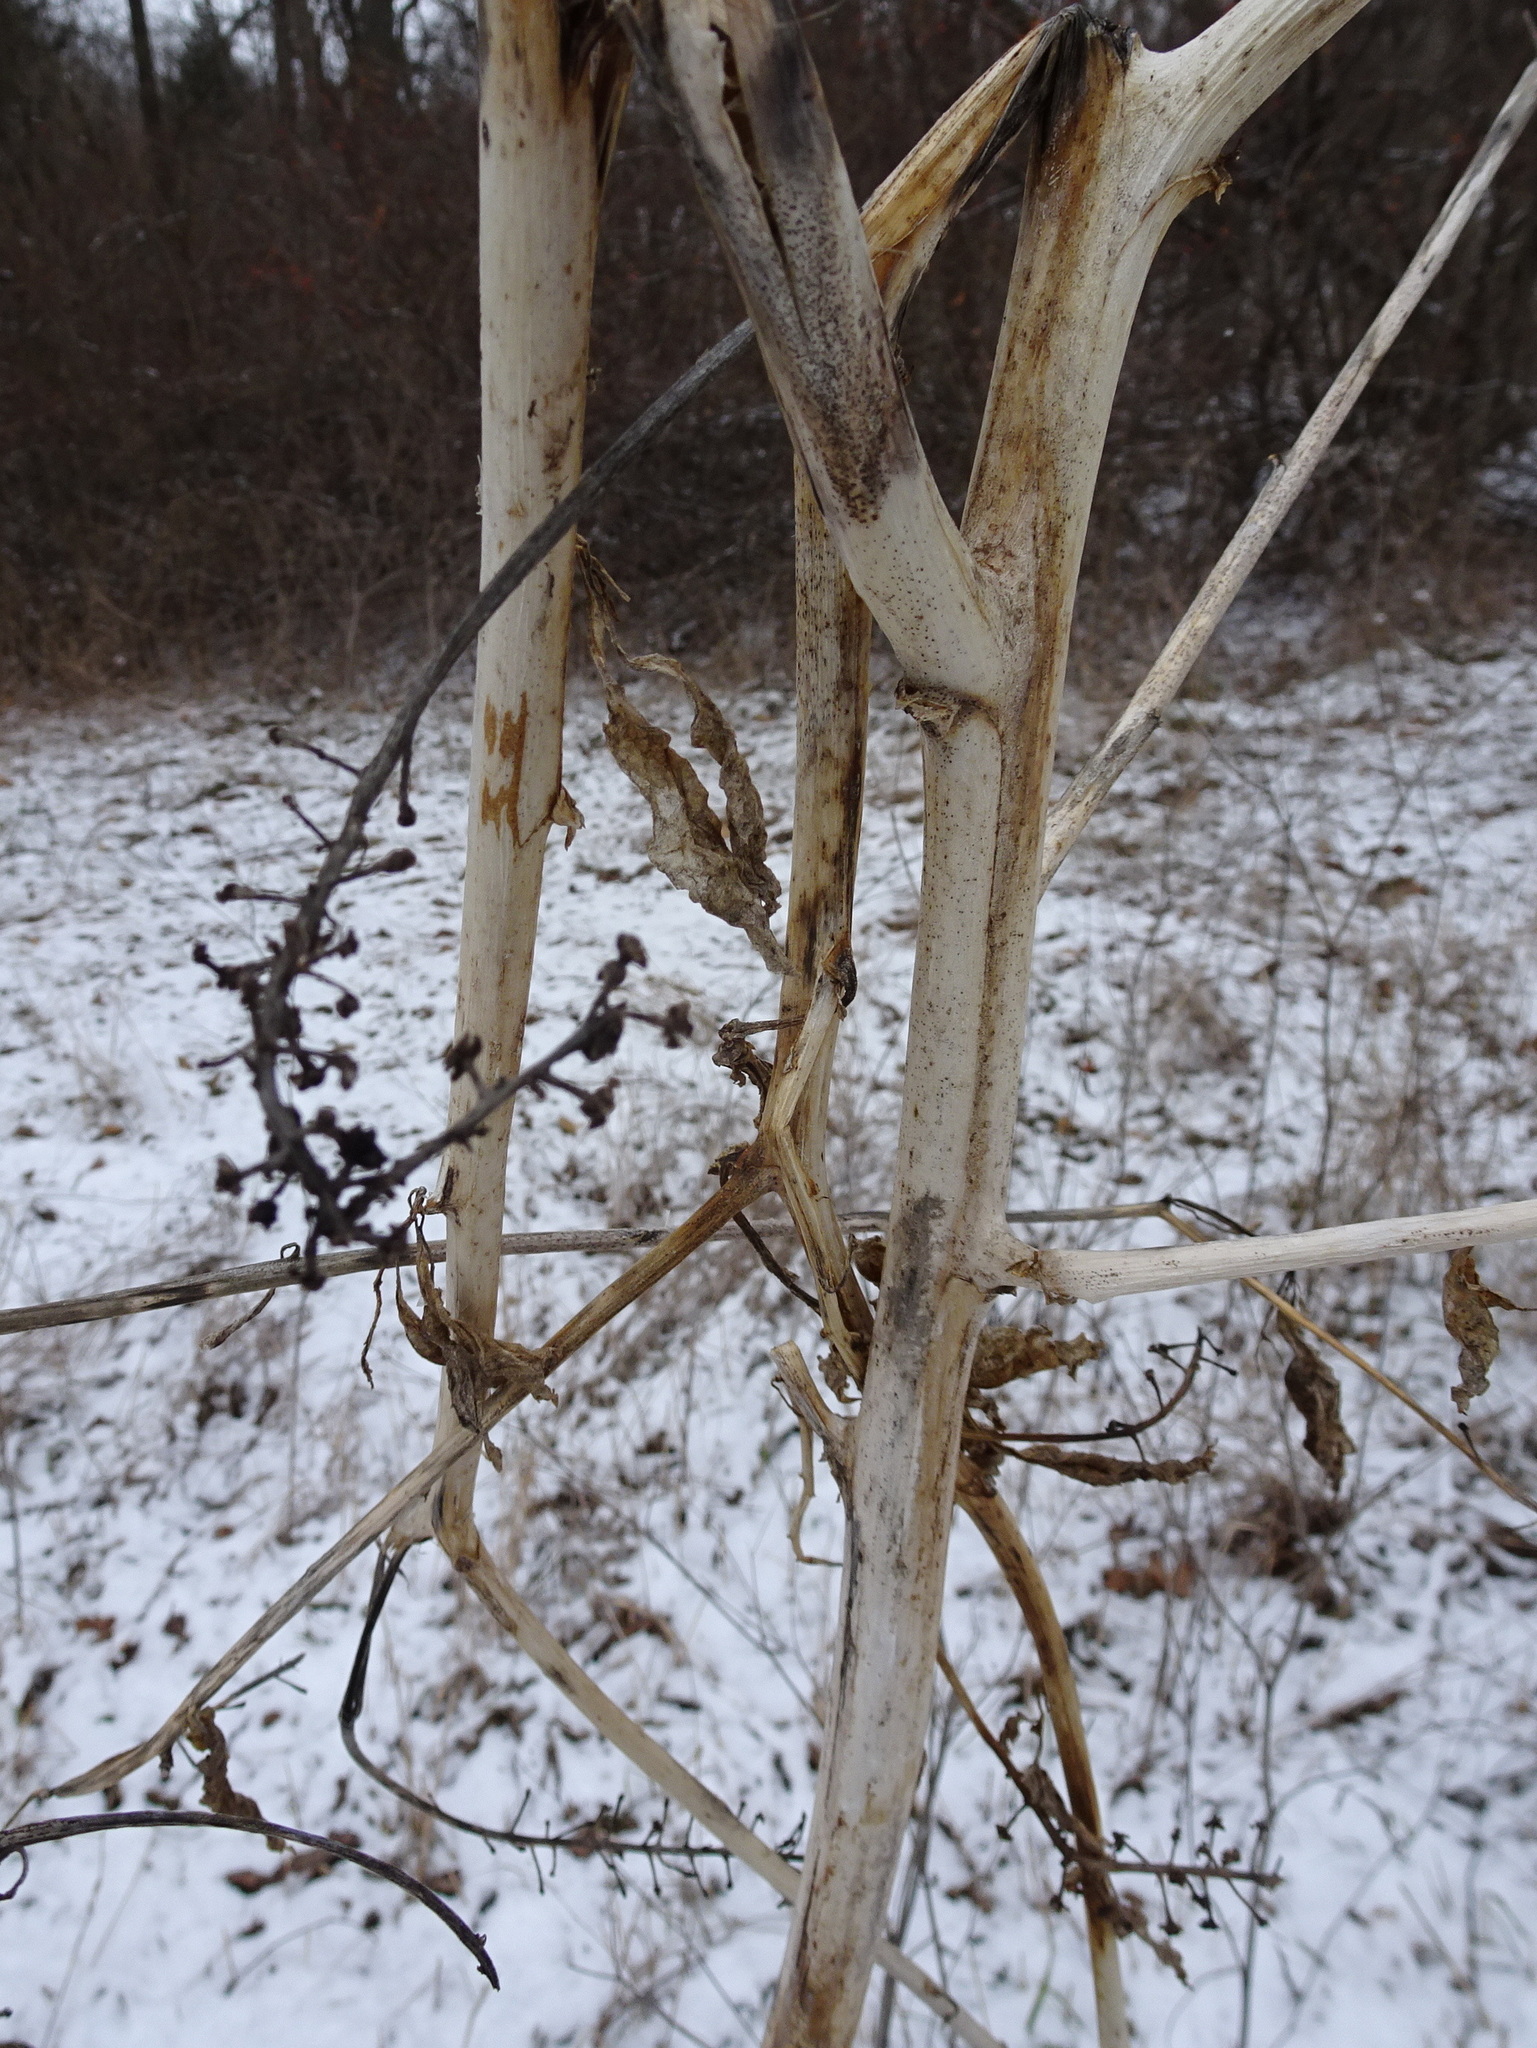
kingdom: Plantae
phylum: Tracheophyta
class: Magnoliopsida
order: Caryophyllales
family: Phytolaccaceae
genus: Phytolacca
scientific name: Phytolacca americana
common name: American pokeweed
